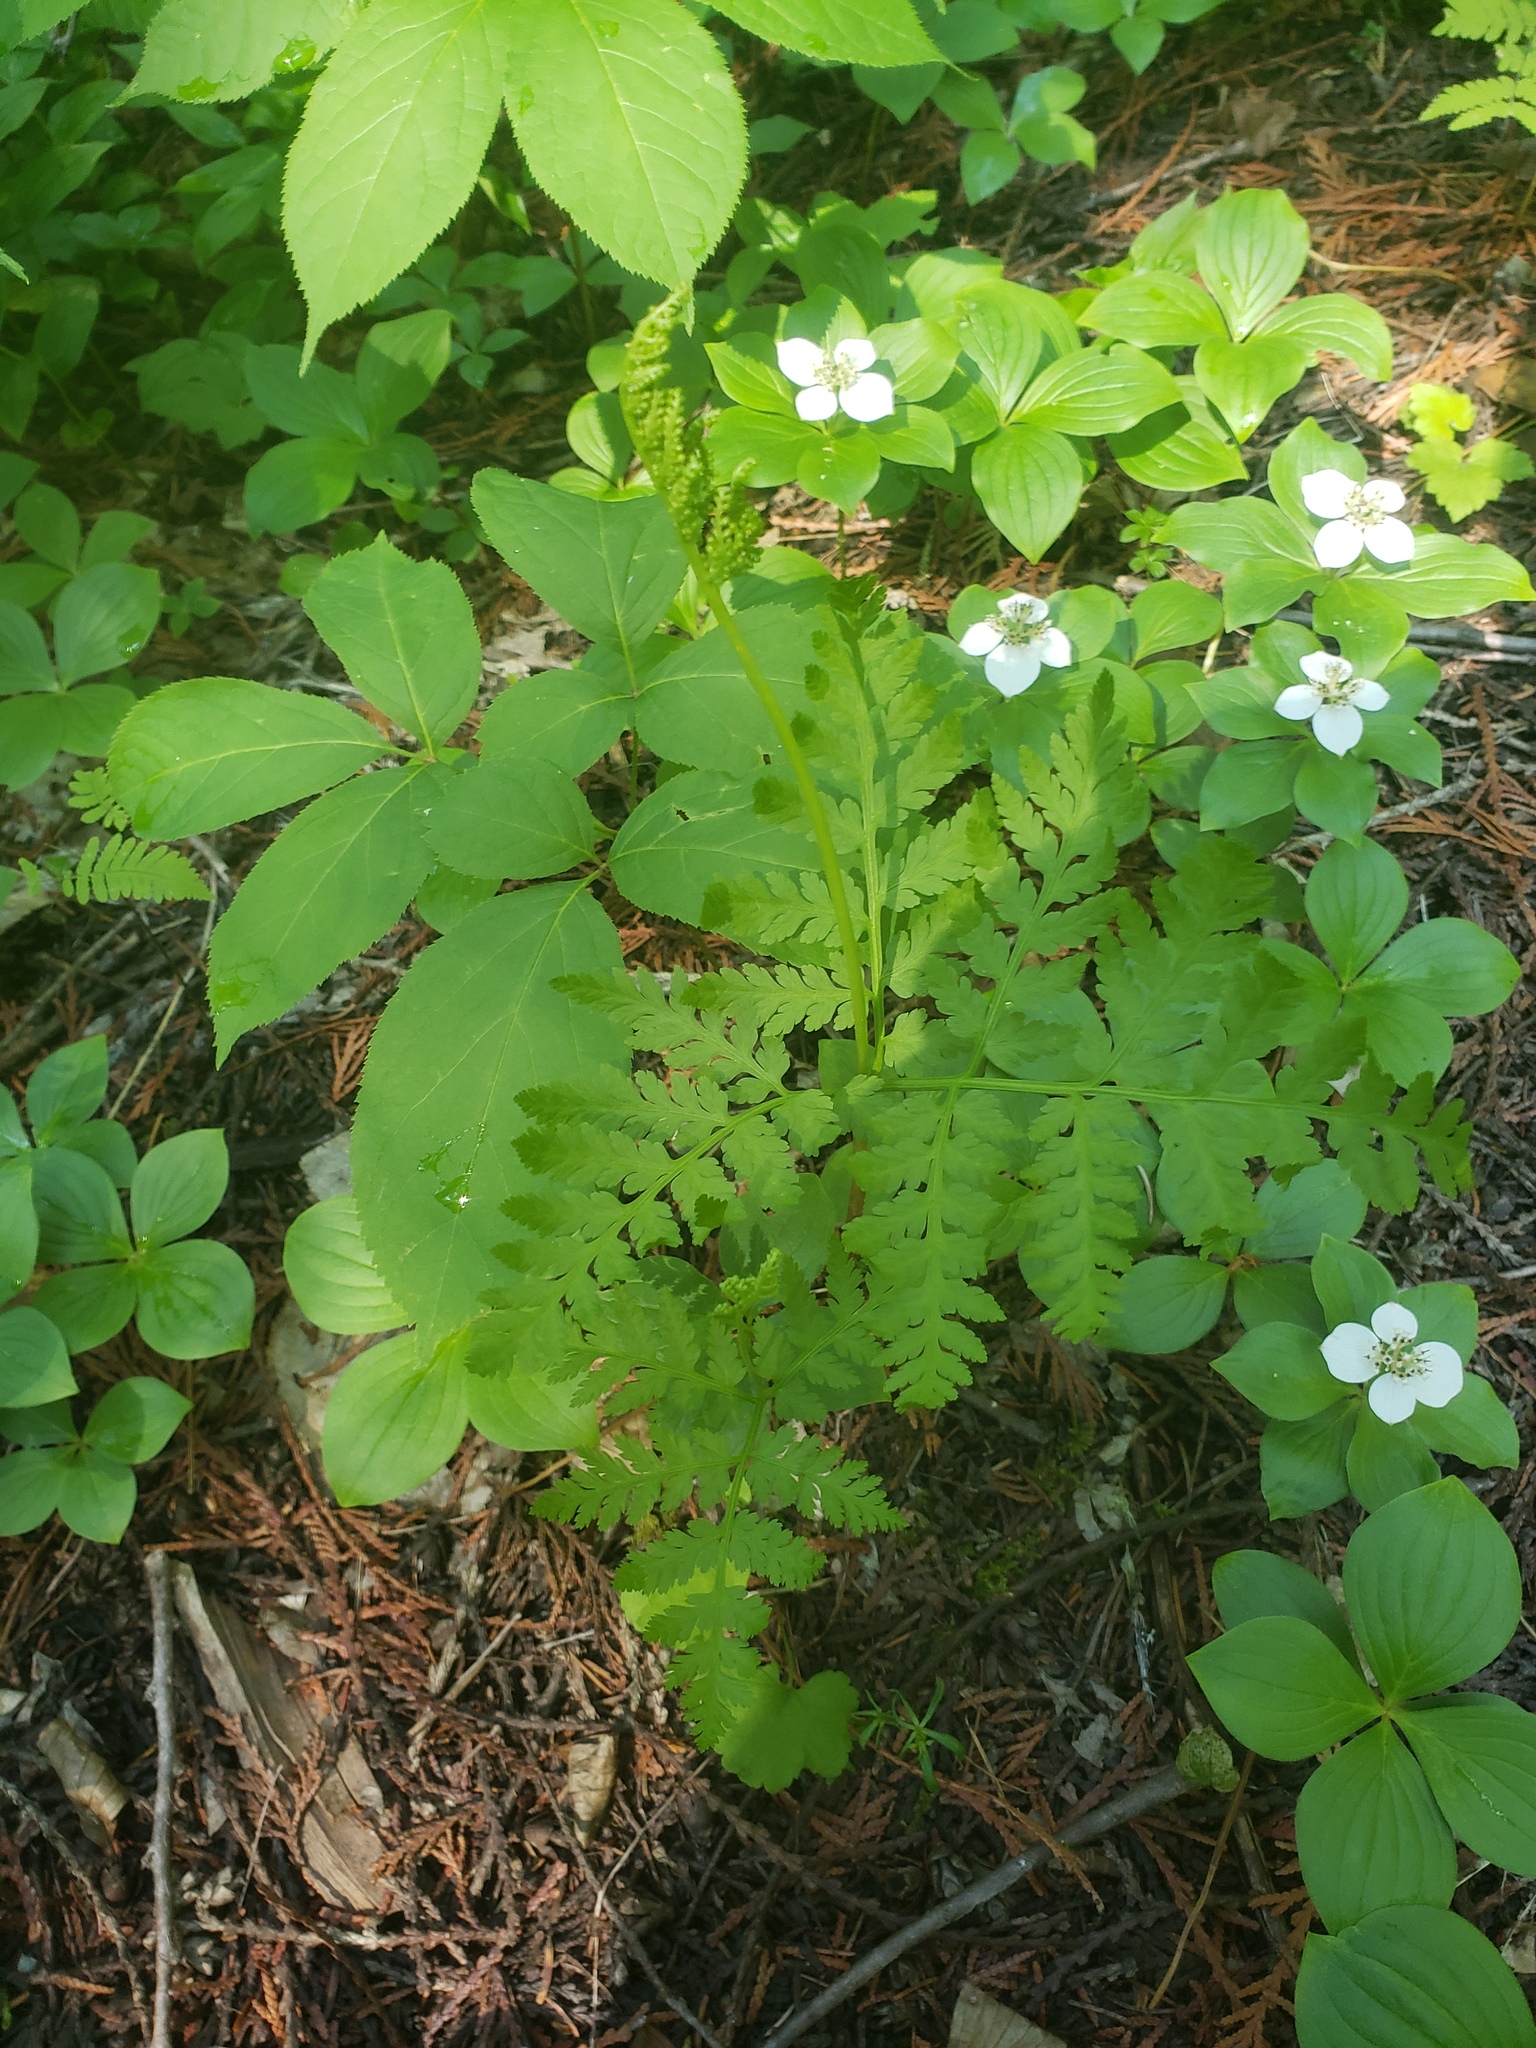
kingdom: Plantae
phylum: Tracheophyta
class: Polypodiopsida
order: Ophioglossales
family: Ophioglossaceae
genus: Botrypus
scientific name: Botrypus virginianus
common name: Common grapefern
